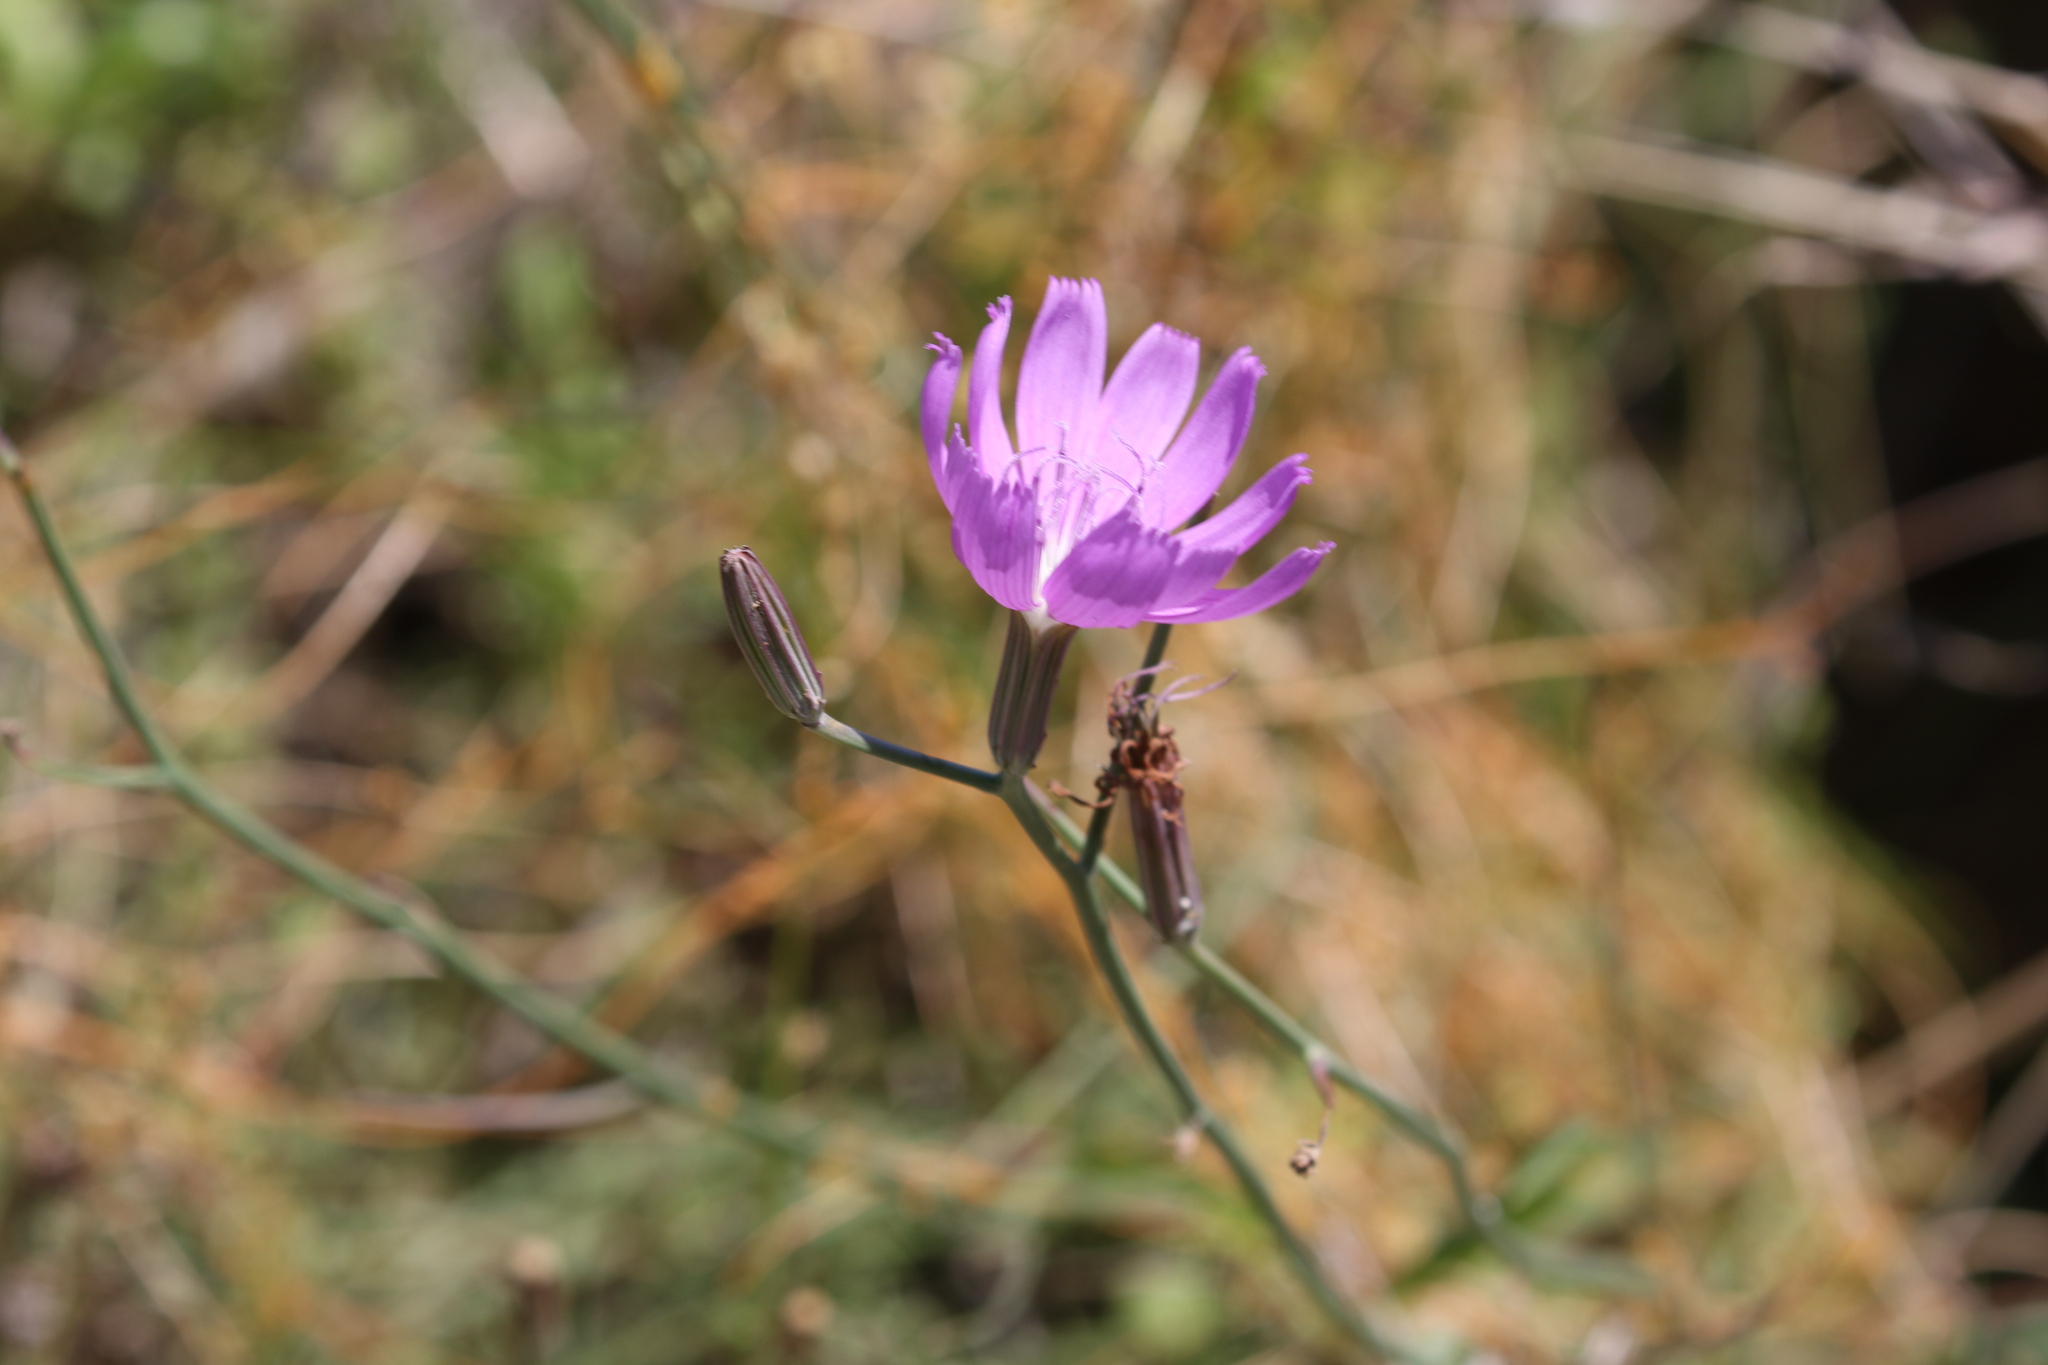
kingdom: Plantae
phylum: Tracheophyta
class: Magnoliopsida
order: Asterales
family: Asteraceae
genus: Lygodesmia
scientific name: Lygodesmia texana
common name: Texas skeleton-plant
